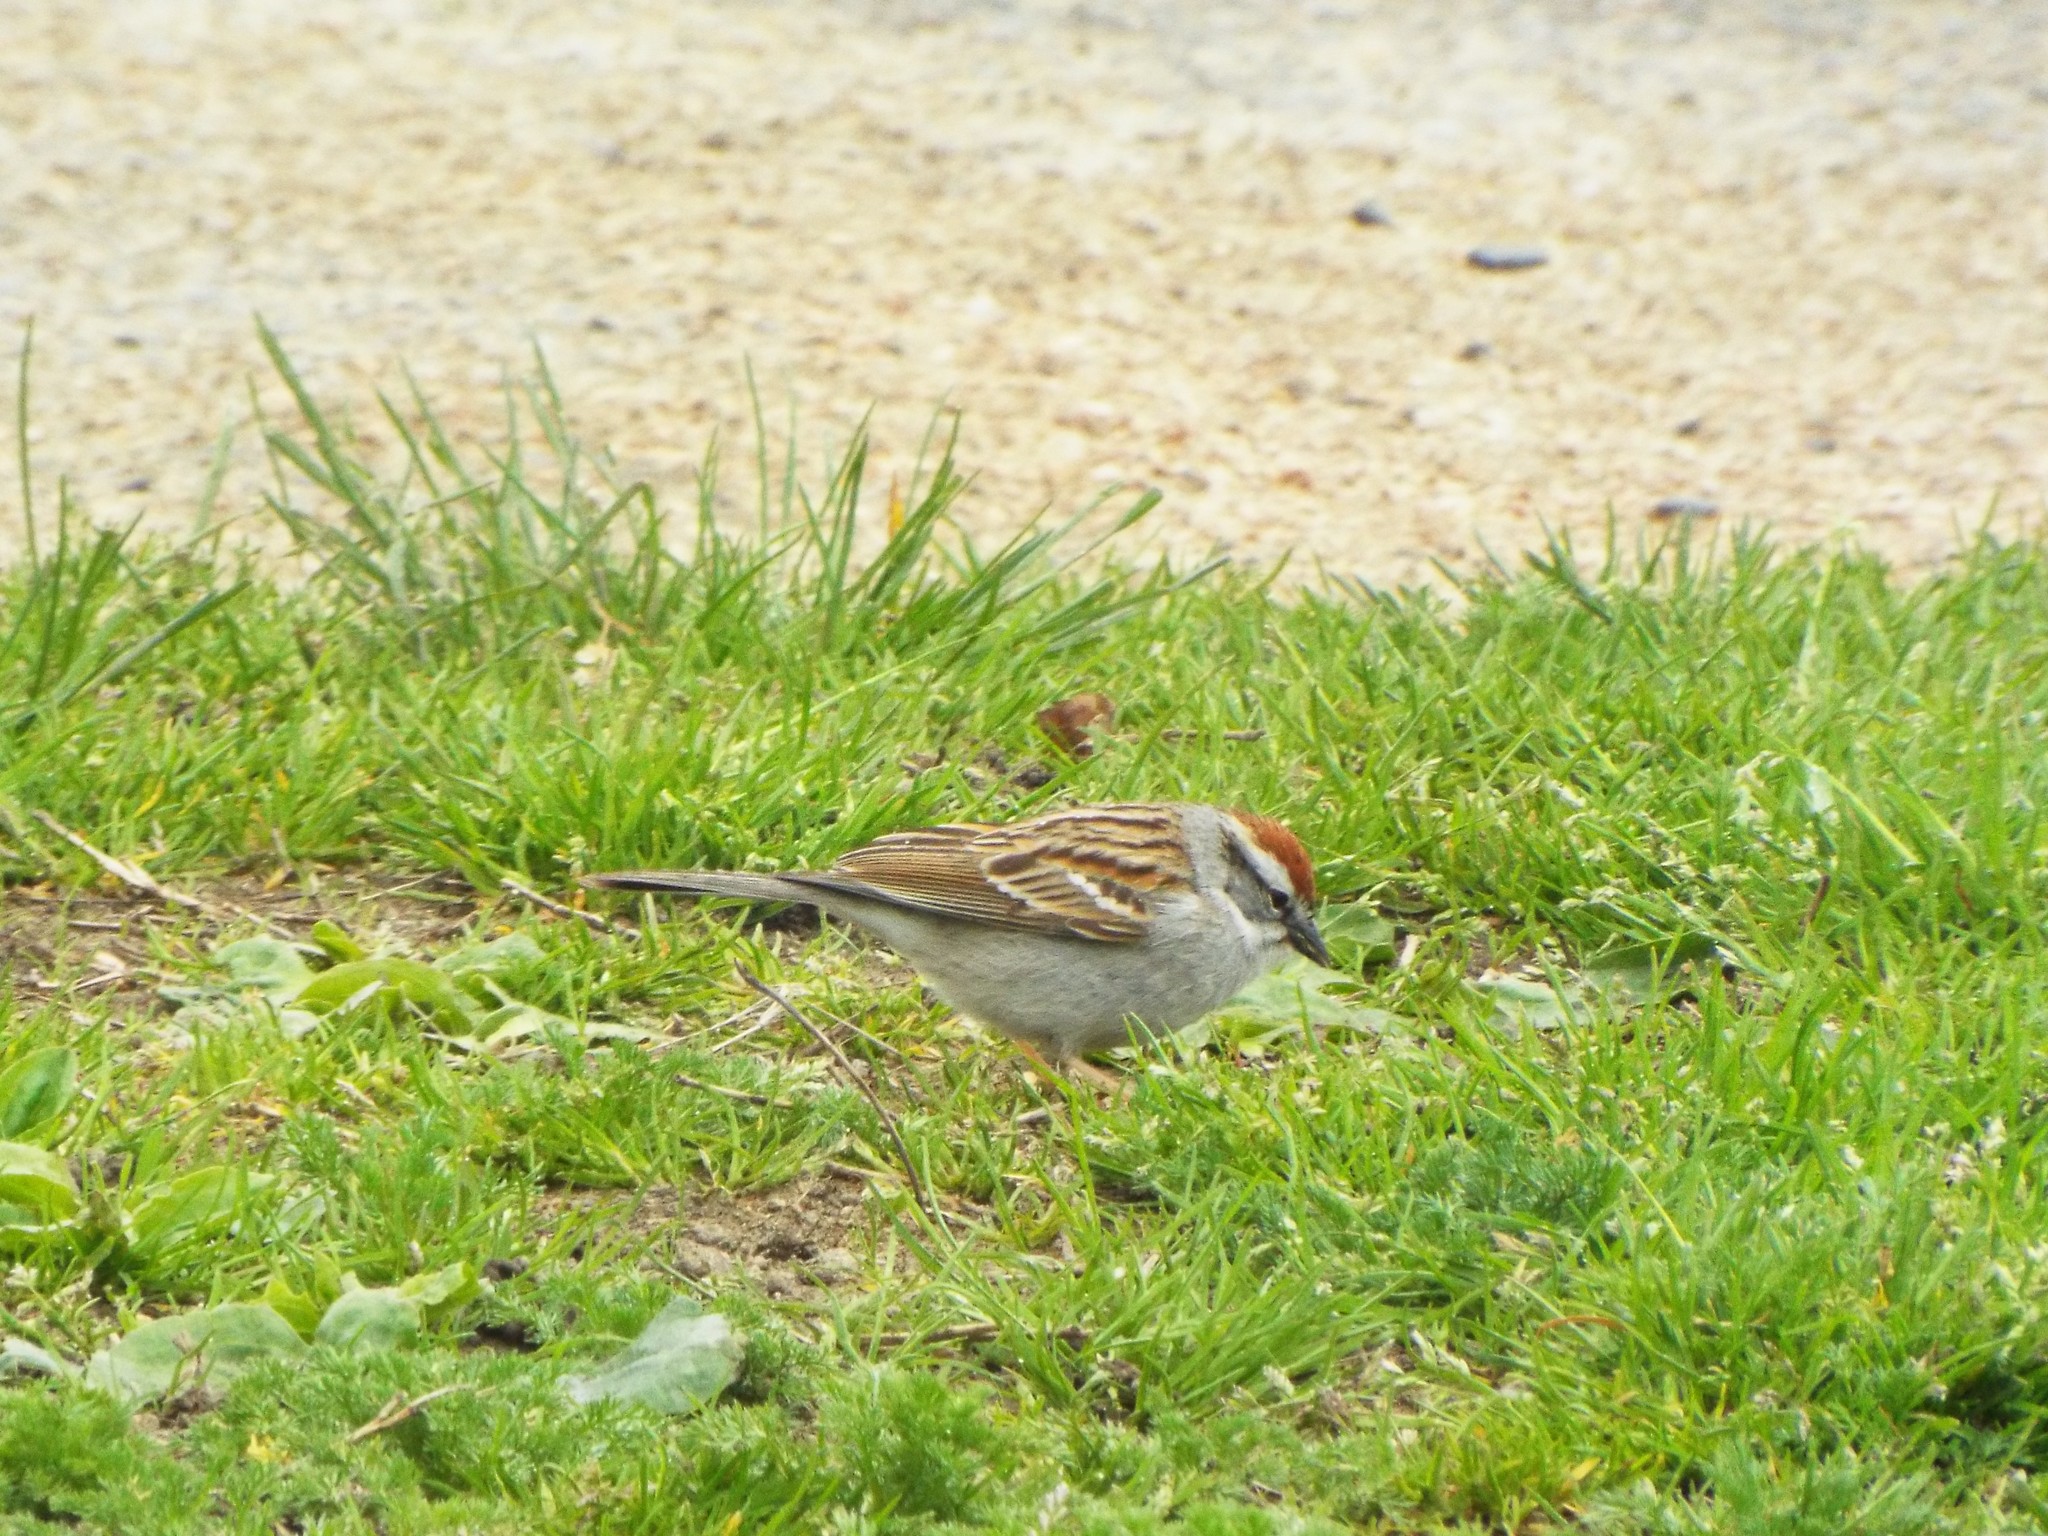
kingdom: Animalia
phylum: Chordata
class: Aves
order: Passeriformes
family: Passerellidae
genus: Spizella
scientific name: Spizella passerina
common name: Chipping sparrow
